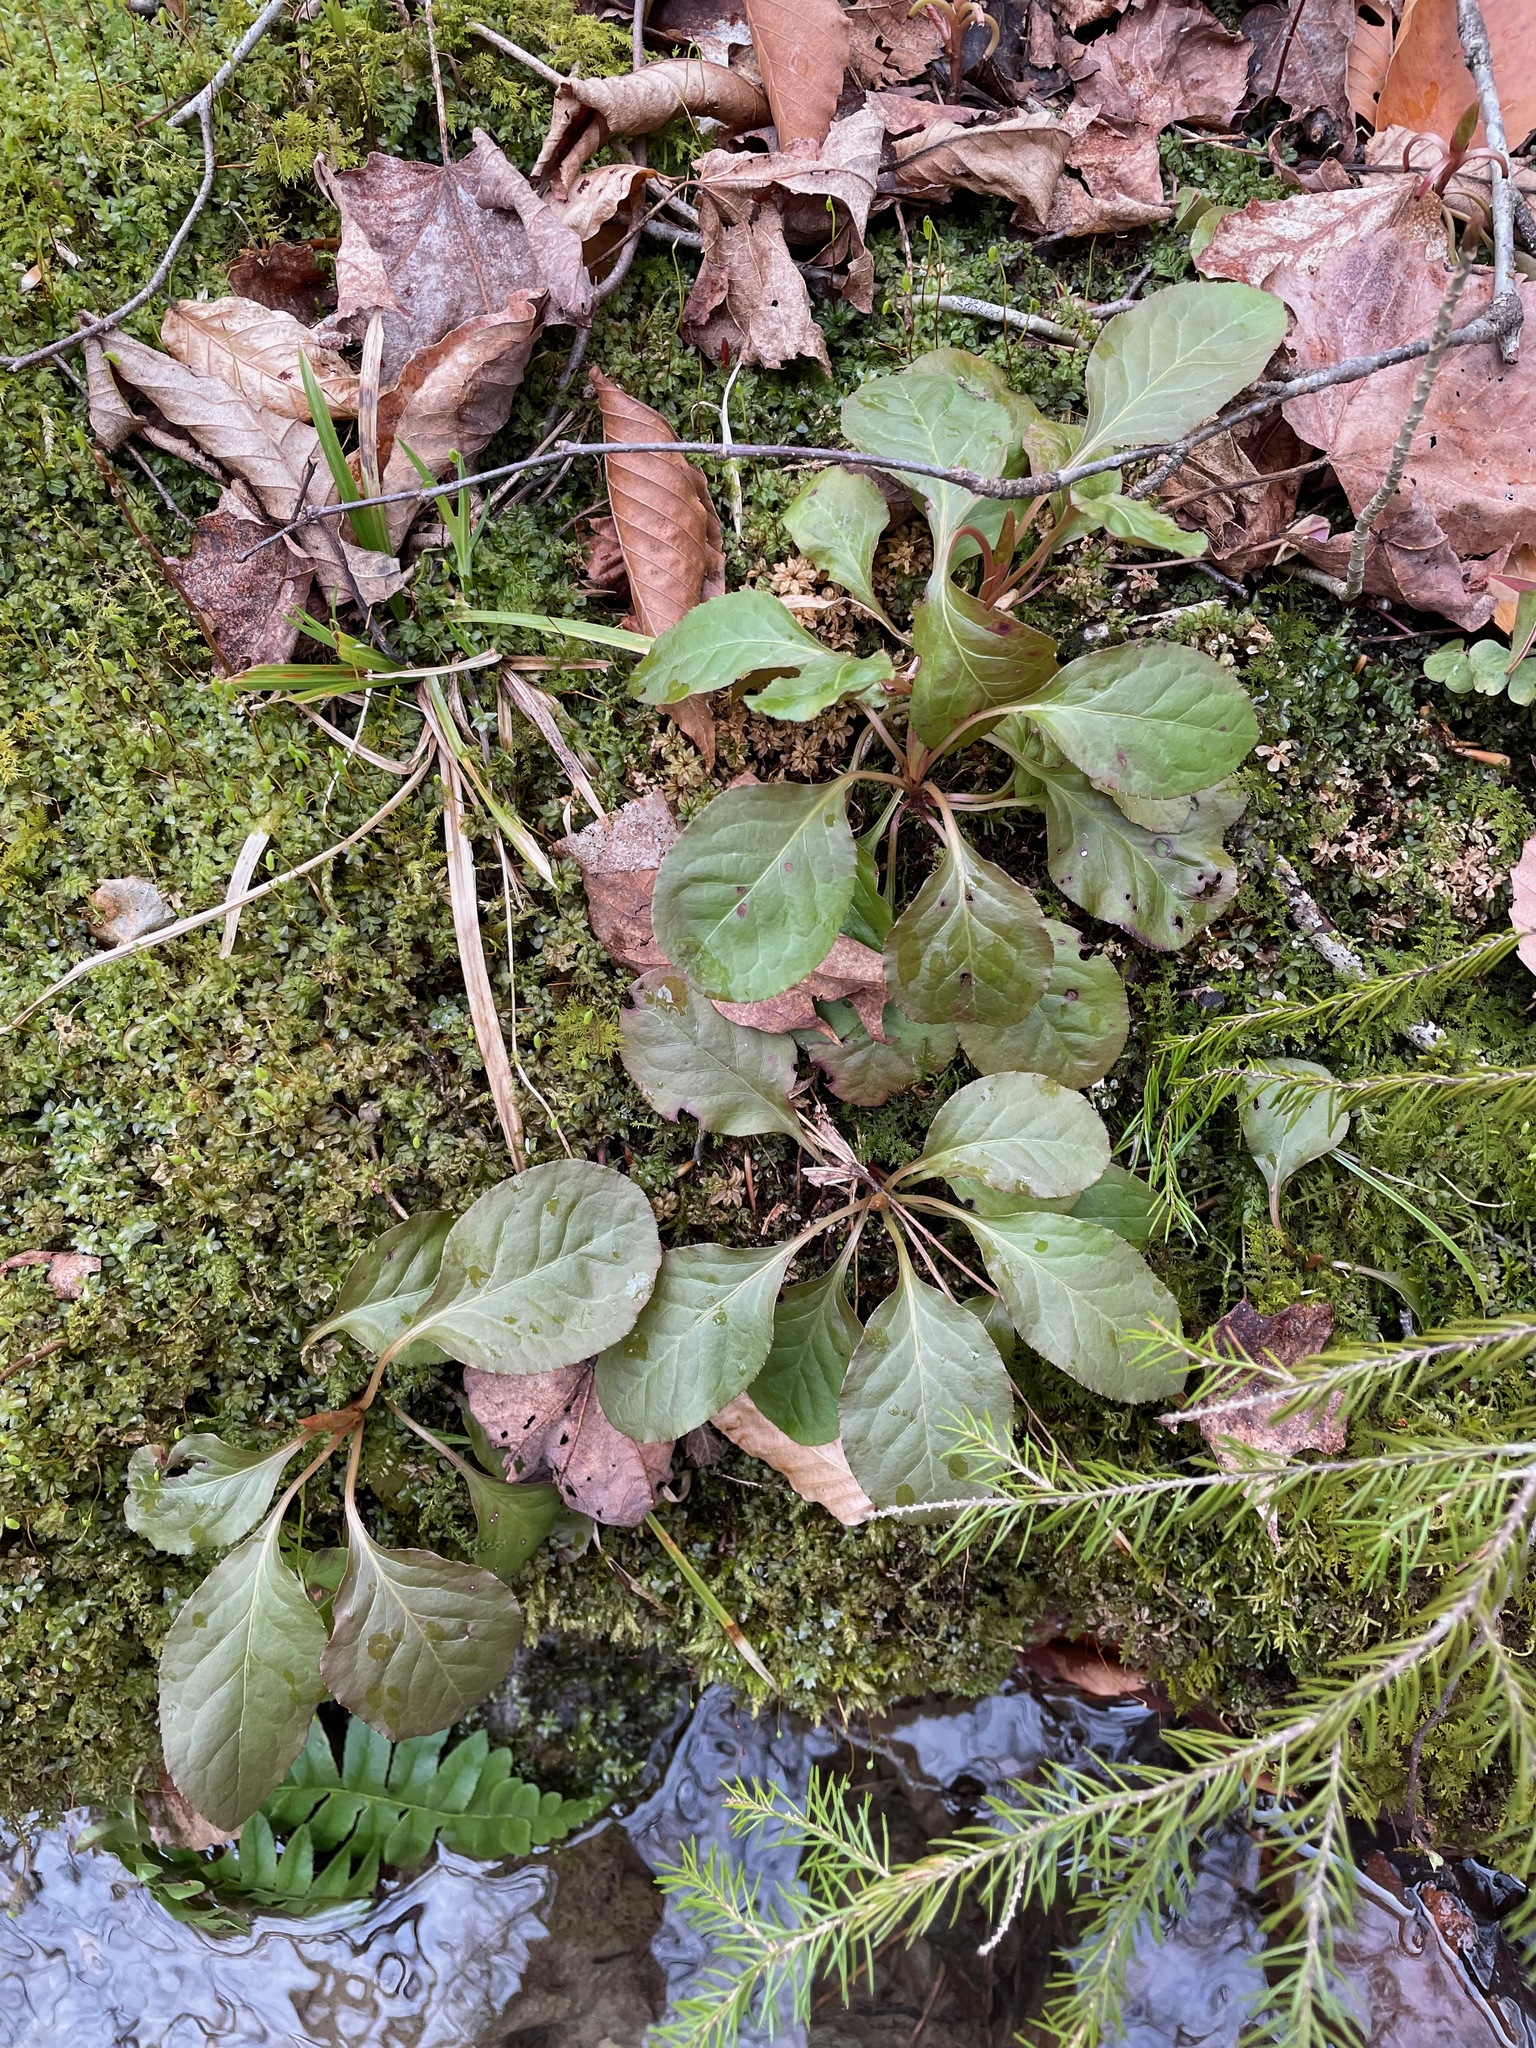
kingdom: Plantae
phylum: Tracheophyta
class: Magnoliopsida
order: Ericales
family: Ericaceae
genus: Pyrola
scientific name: Pyrola elliptica
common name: Shinleaf
